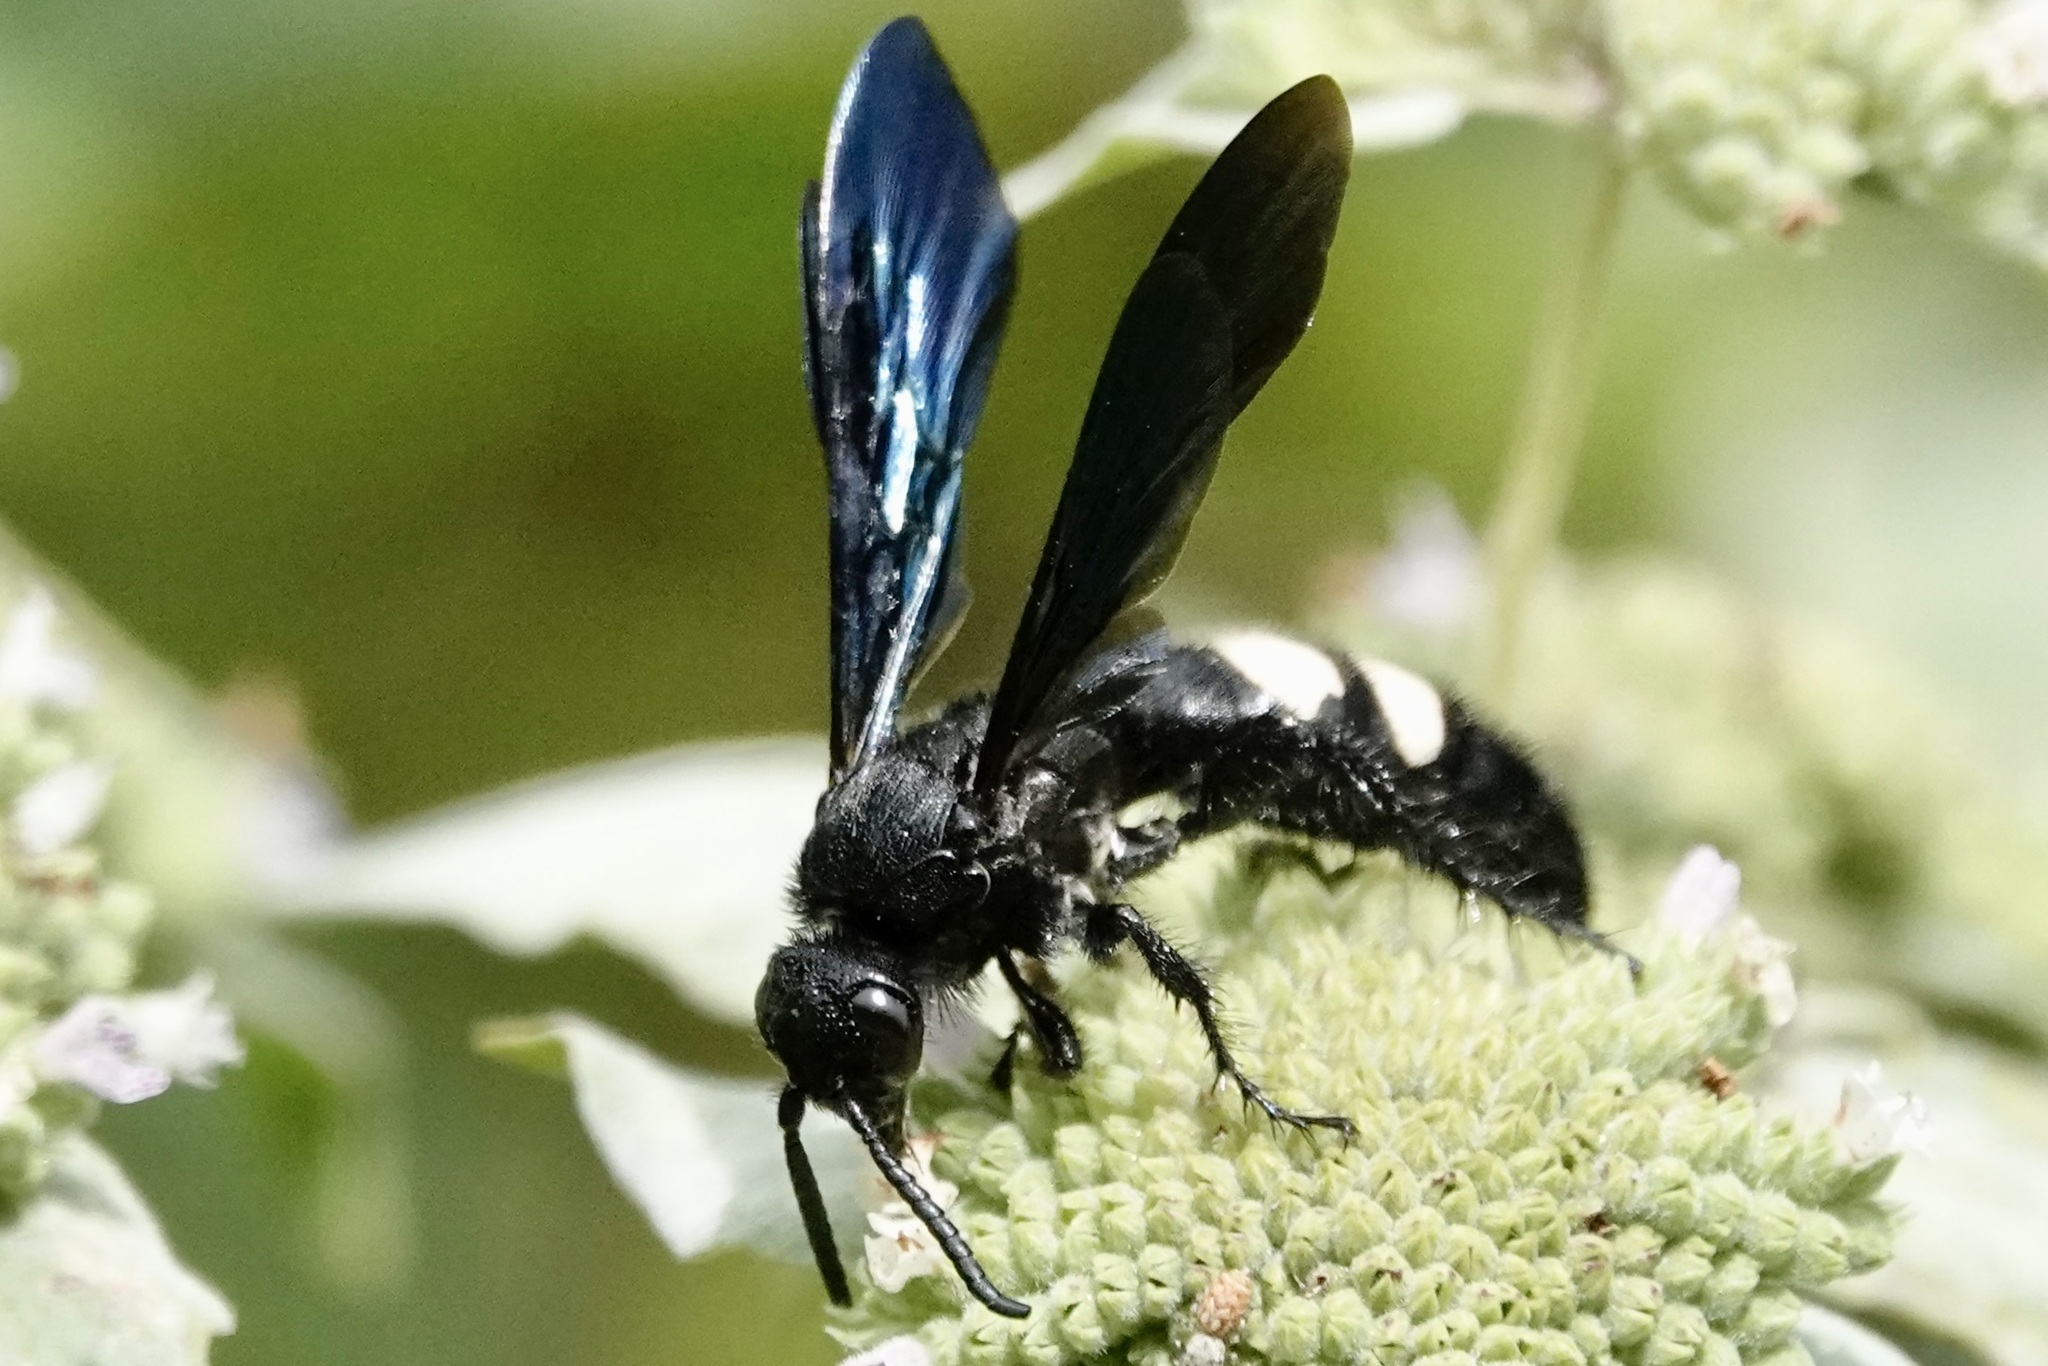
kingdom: Animalia
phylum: Arthropoda
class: Insecta
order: Hymenoptera
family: Scoliidae
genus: Scolia
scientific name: Scolia bicincta
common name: Double-banded scoliid wasp
